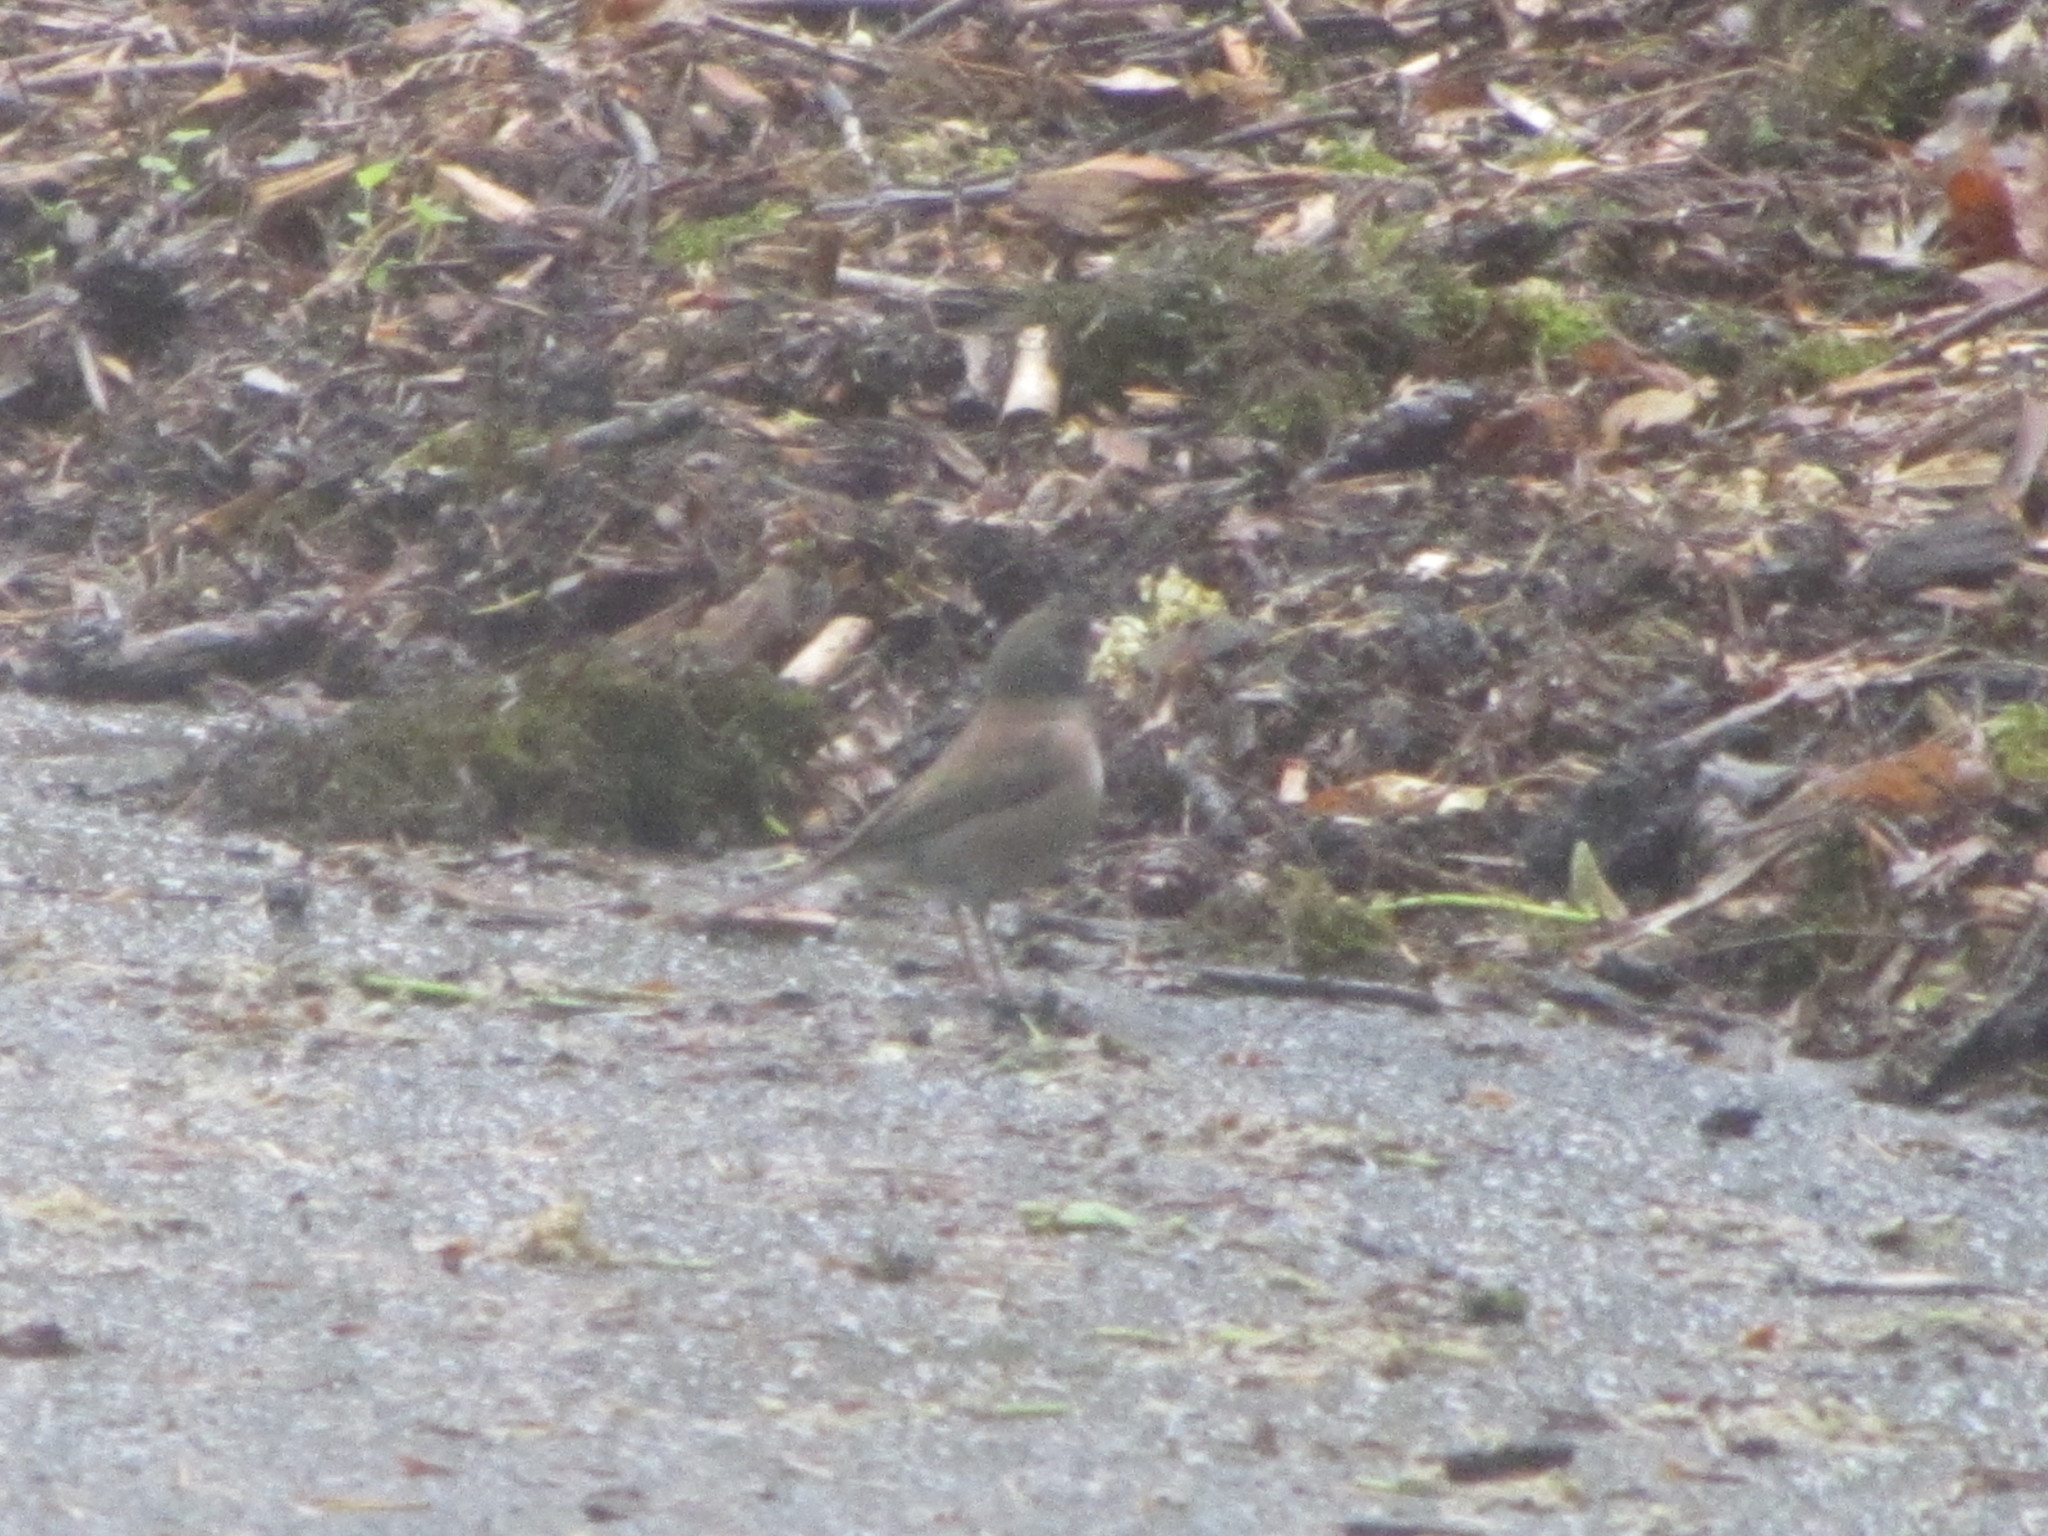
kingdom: Animalia
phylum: Chordata
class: Aves
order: Passeriformes
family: Passerellidae
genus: Junco
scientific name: Junco hyemalis
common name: Dark-eyed junco
